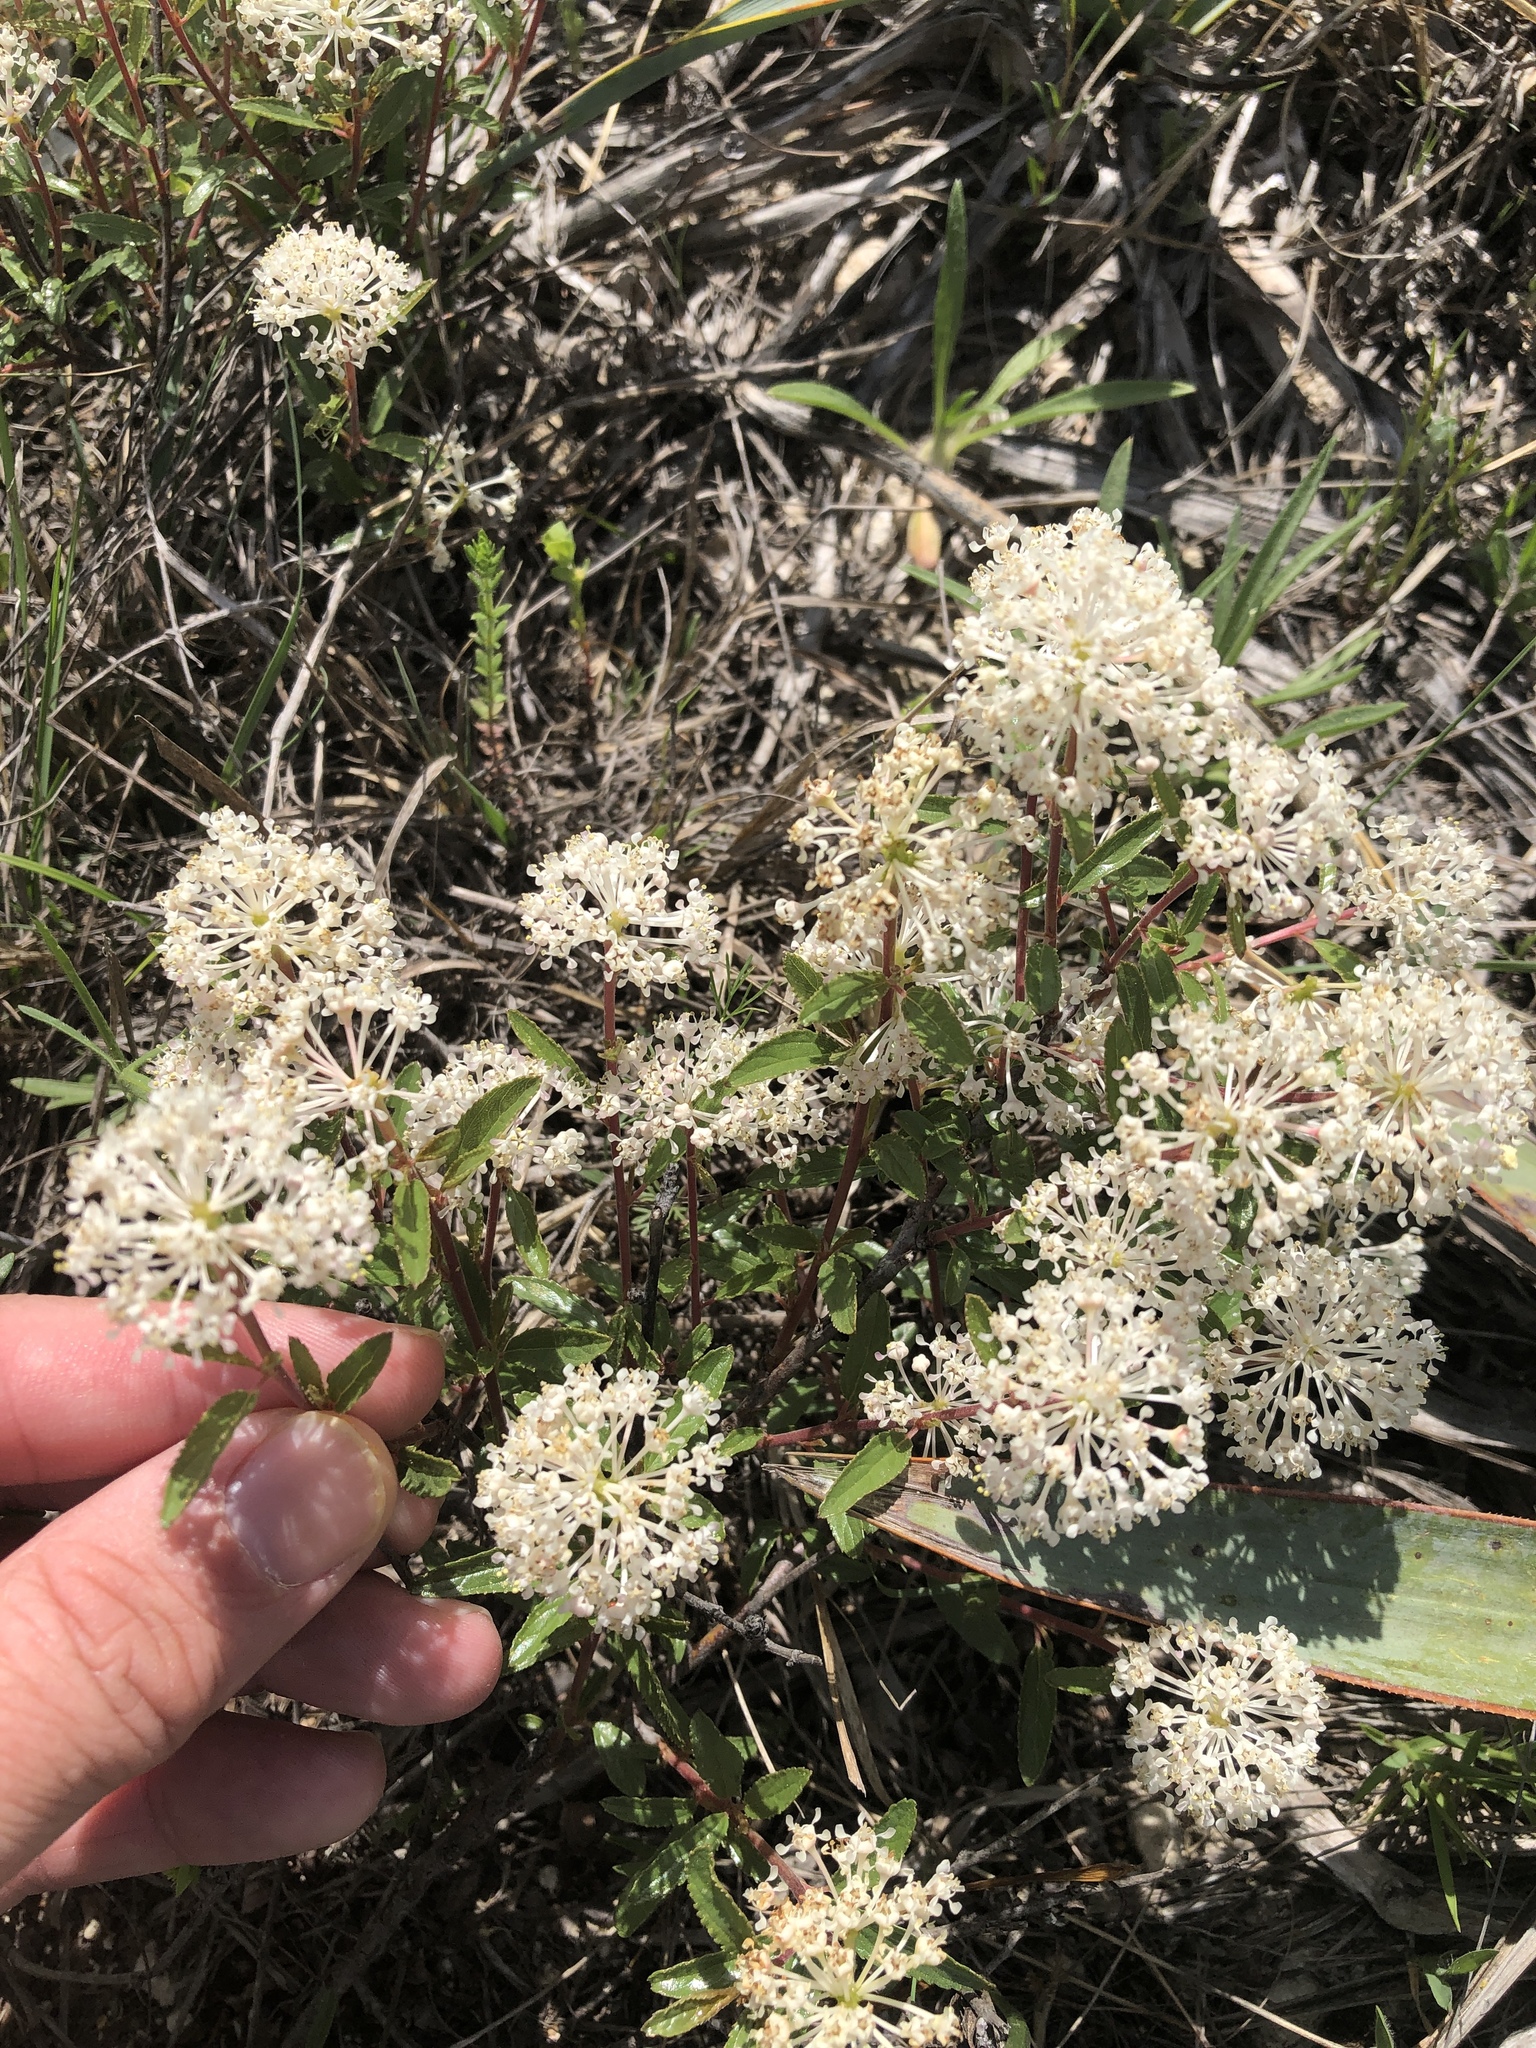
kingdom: Plantae
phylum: Tracheophyta
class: Magnoliopsida
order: Rosales
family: Rhamnaceae
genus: Ceanothus
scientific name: Ceanothus herbaceus
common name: Inland ceanothus
